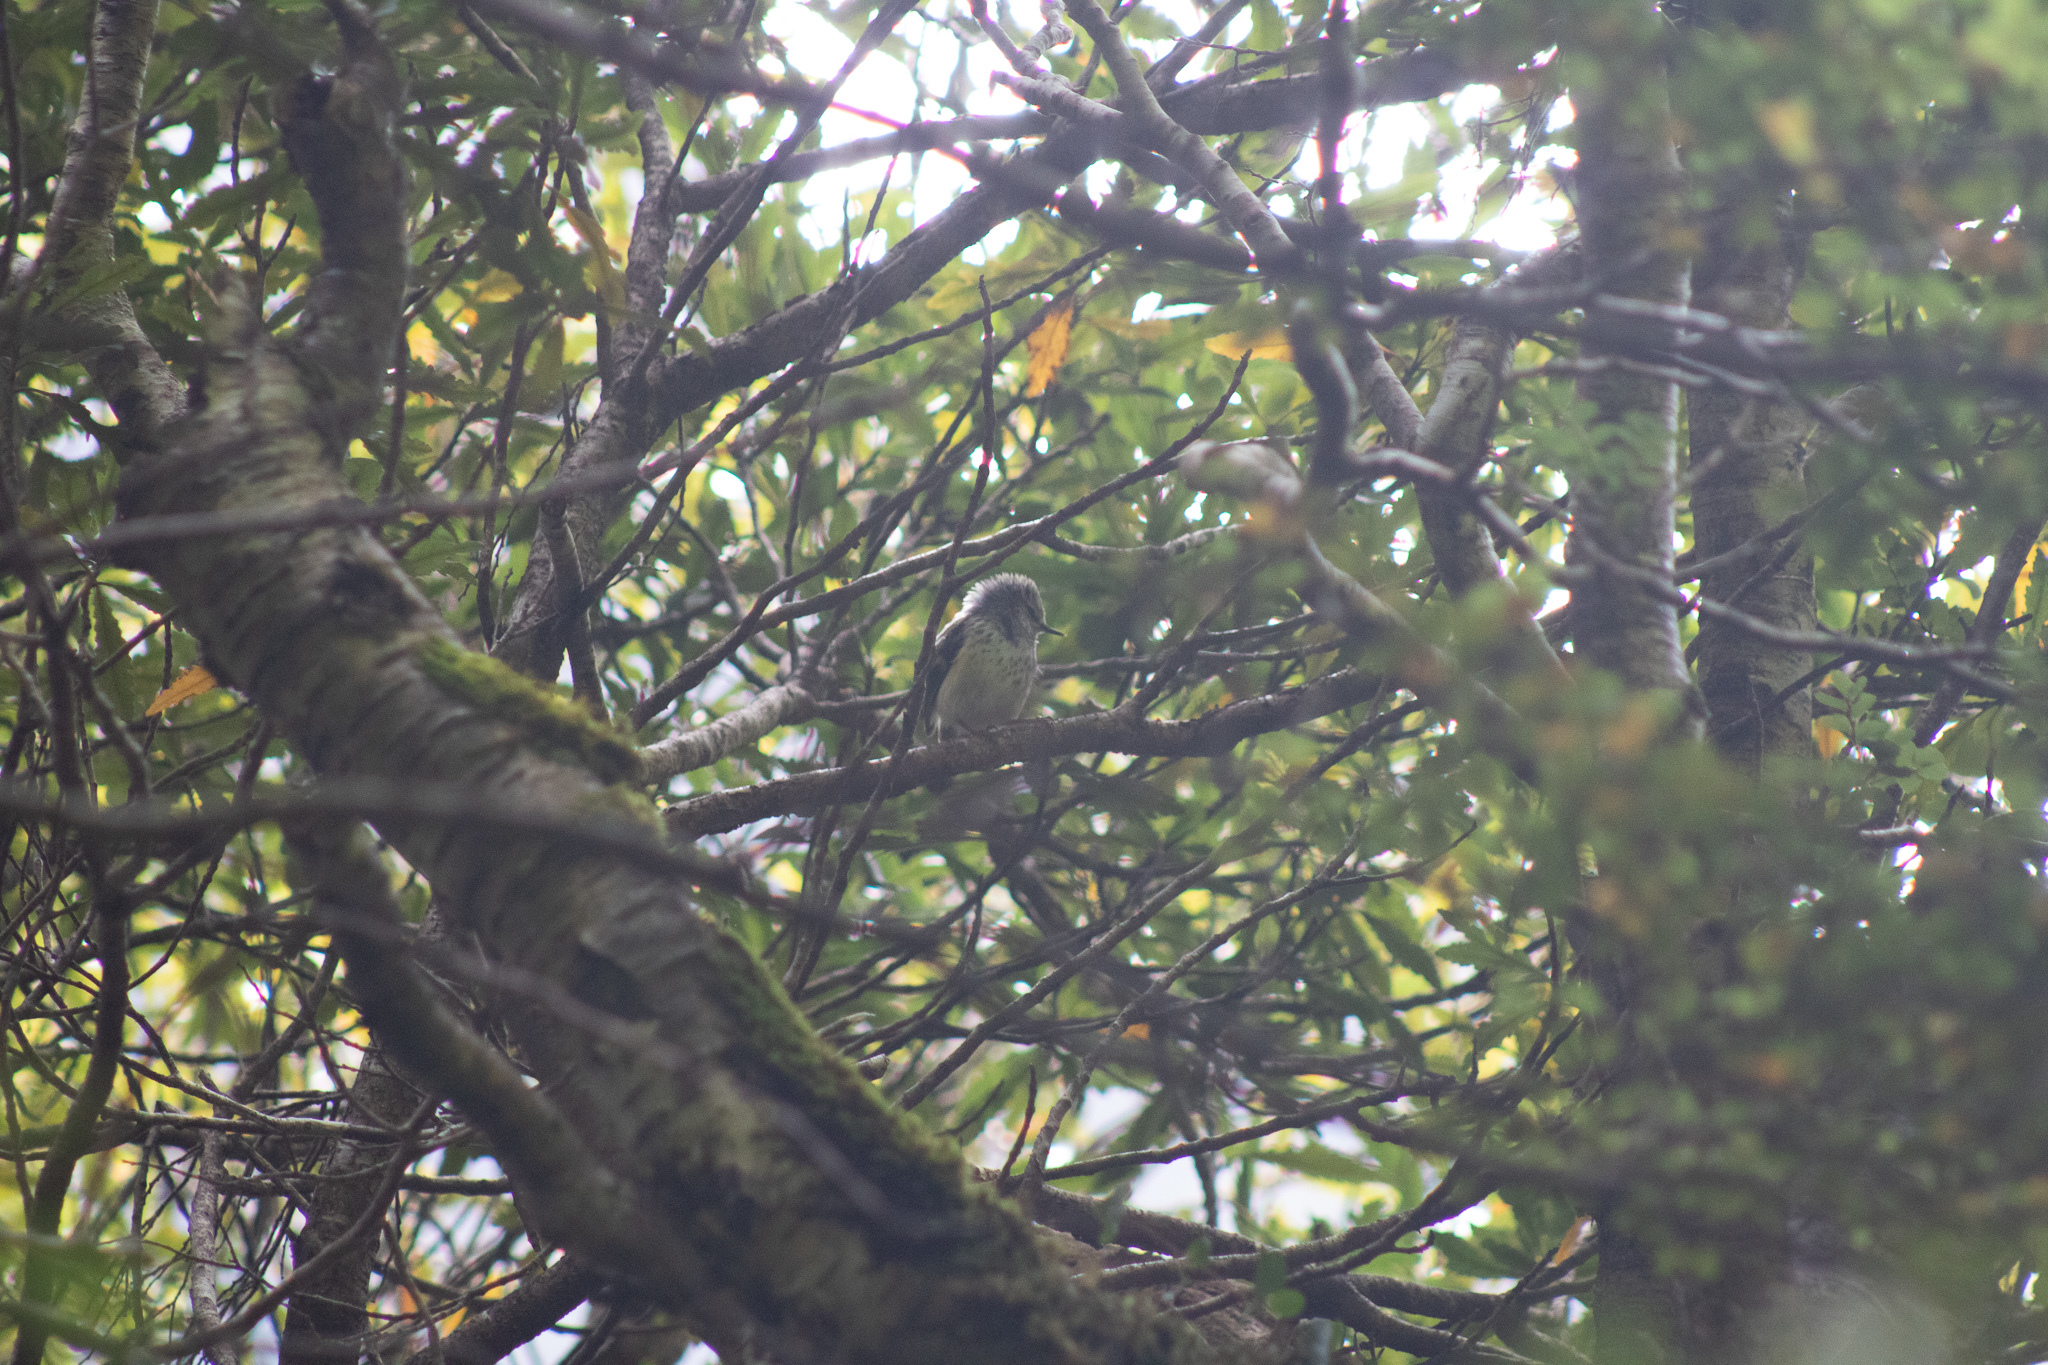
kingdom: Animalia
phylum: Chordata
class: Aves
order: Passeriformes
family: Acanthisittidae
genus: Acanthisitta
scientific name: Acanthisitta chloris
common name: Rifleman
